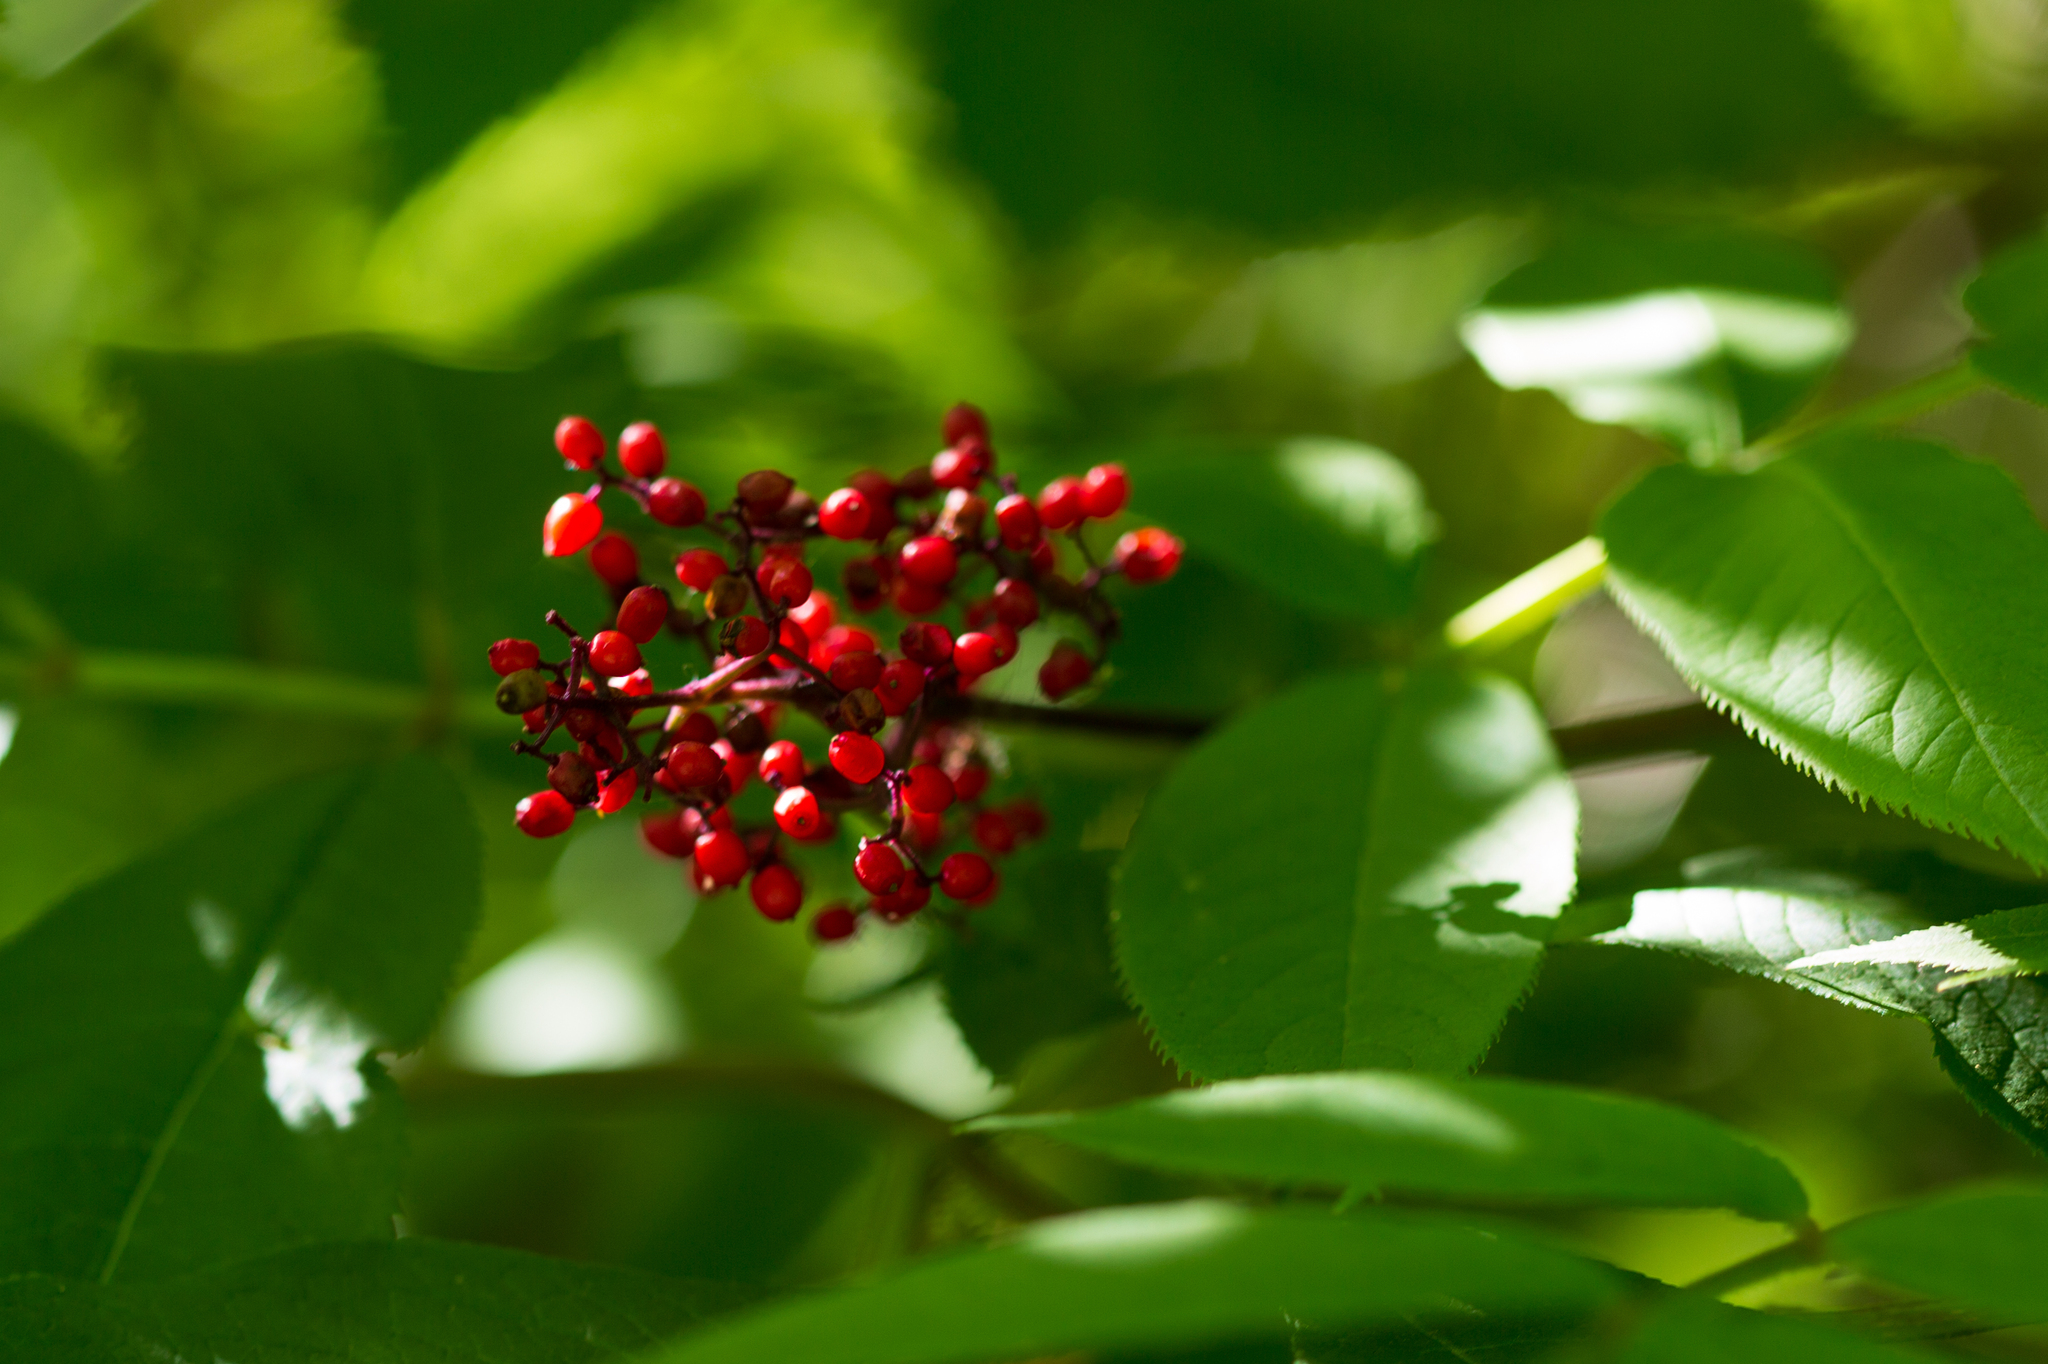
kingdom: Plantae
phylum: Tracheophyta
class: Magnoliopsida
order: Dipsacales
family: Viburnaceae
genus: Sambucus
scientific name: Sambucus racemosa
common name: Red-berried elder
